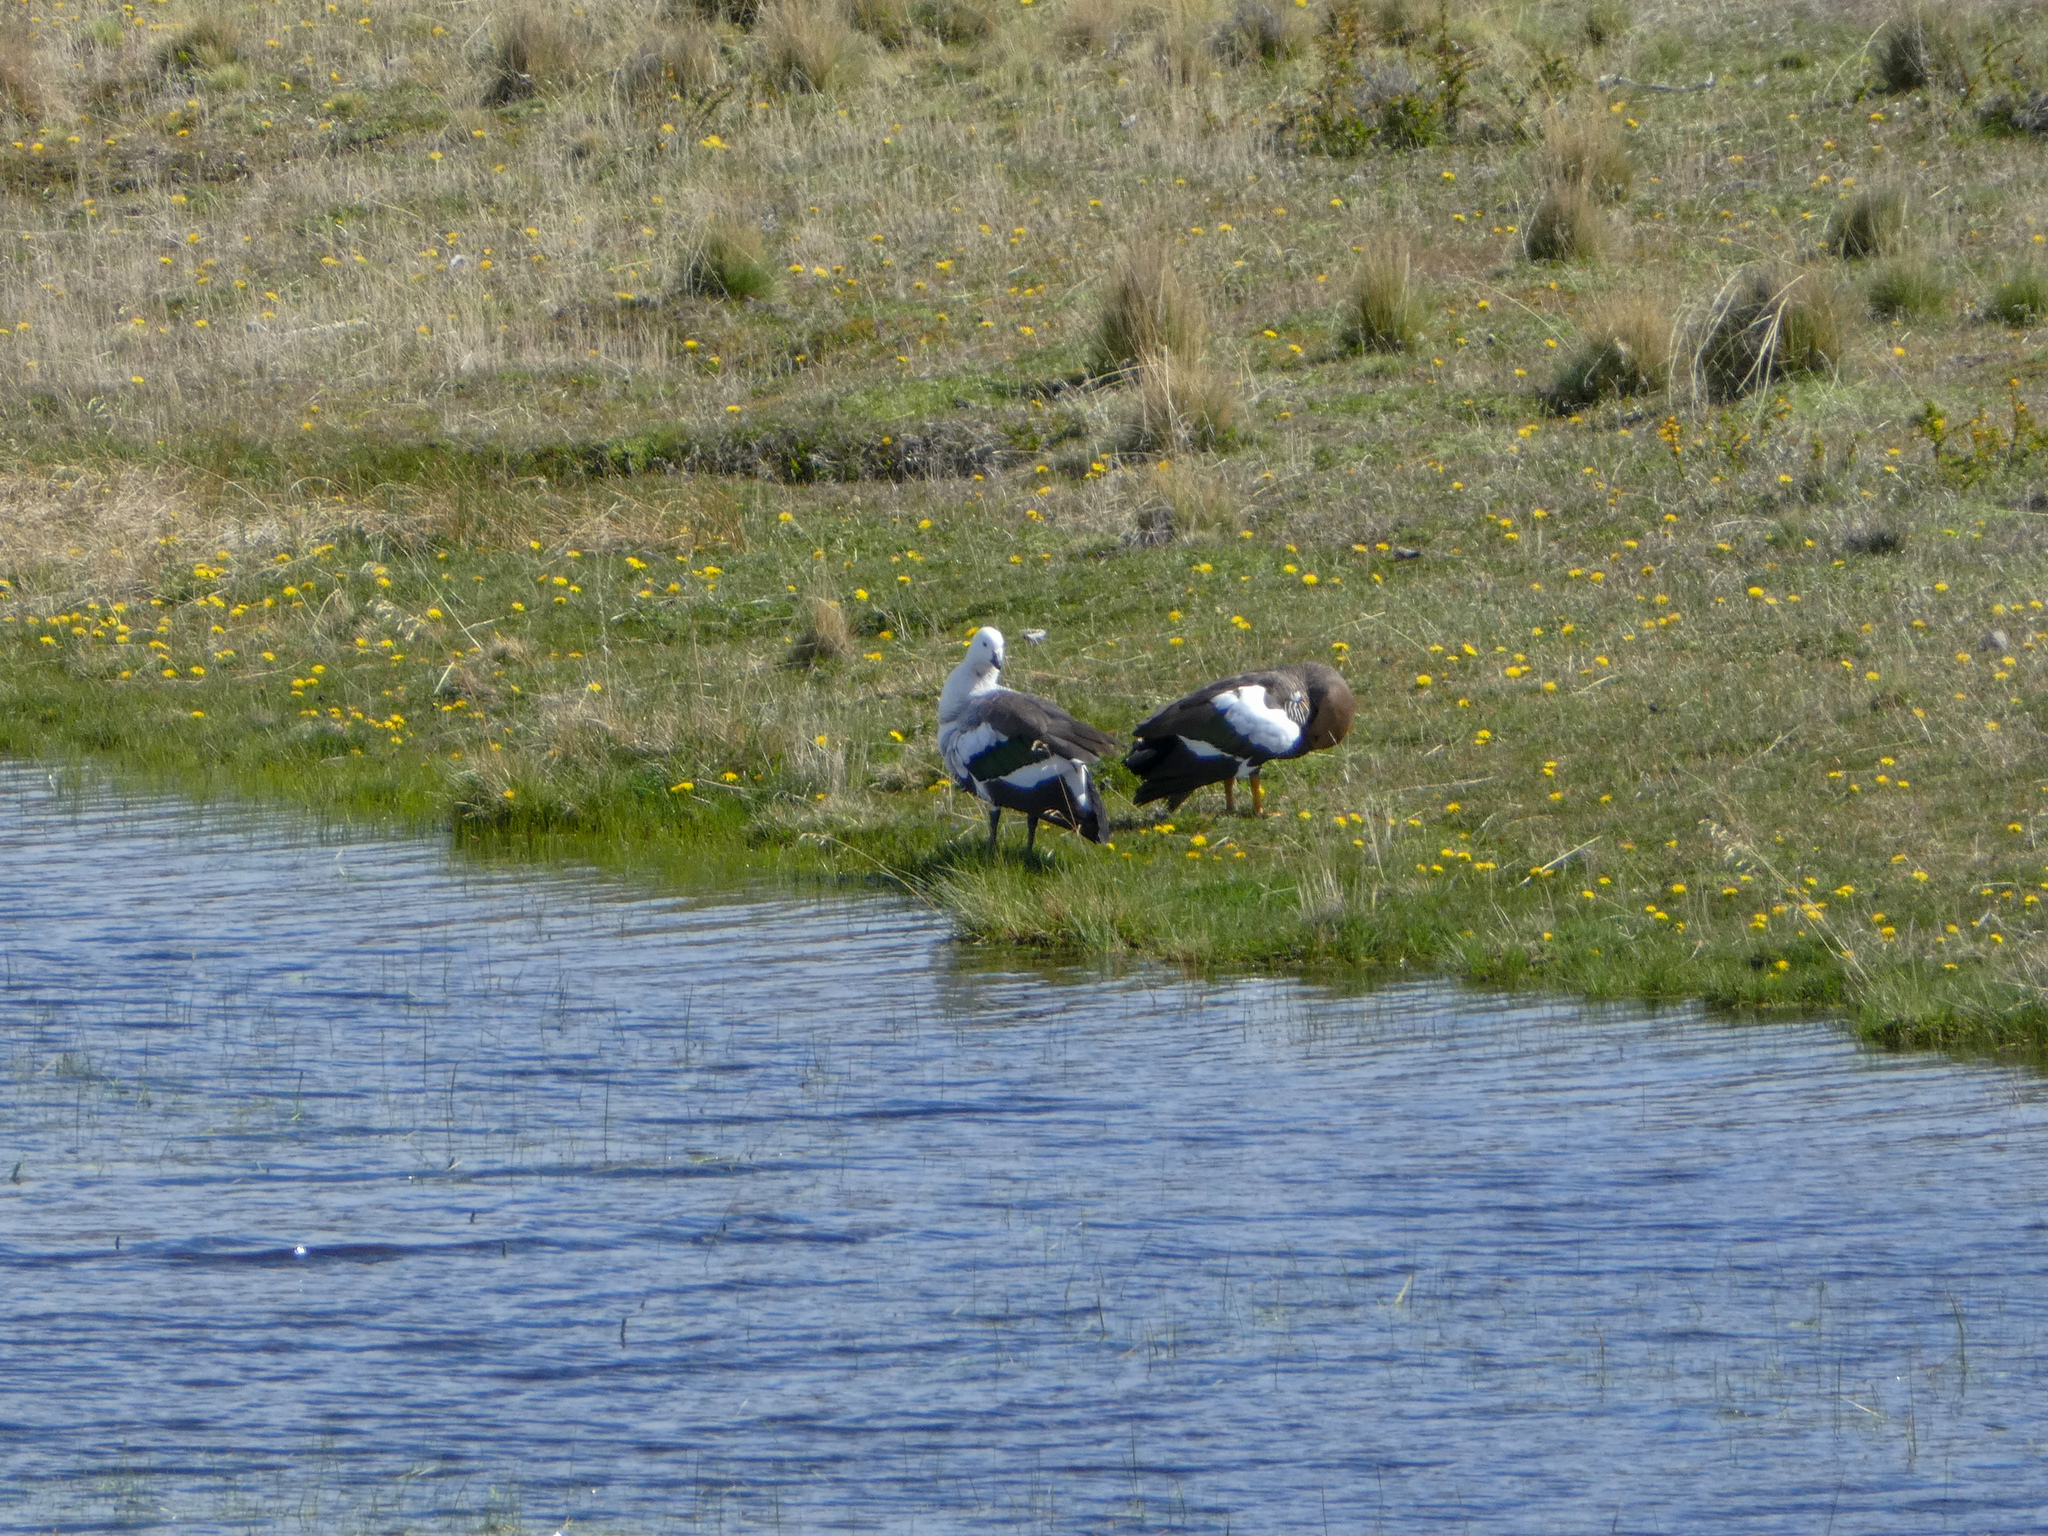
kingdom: Animalia
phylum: Chordata
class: Aves
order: Anseriformes
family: Anatidae
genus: Chloephaga
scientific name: Chloephaga picta
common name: Upland goose
